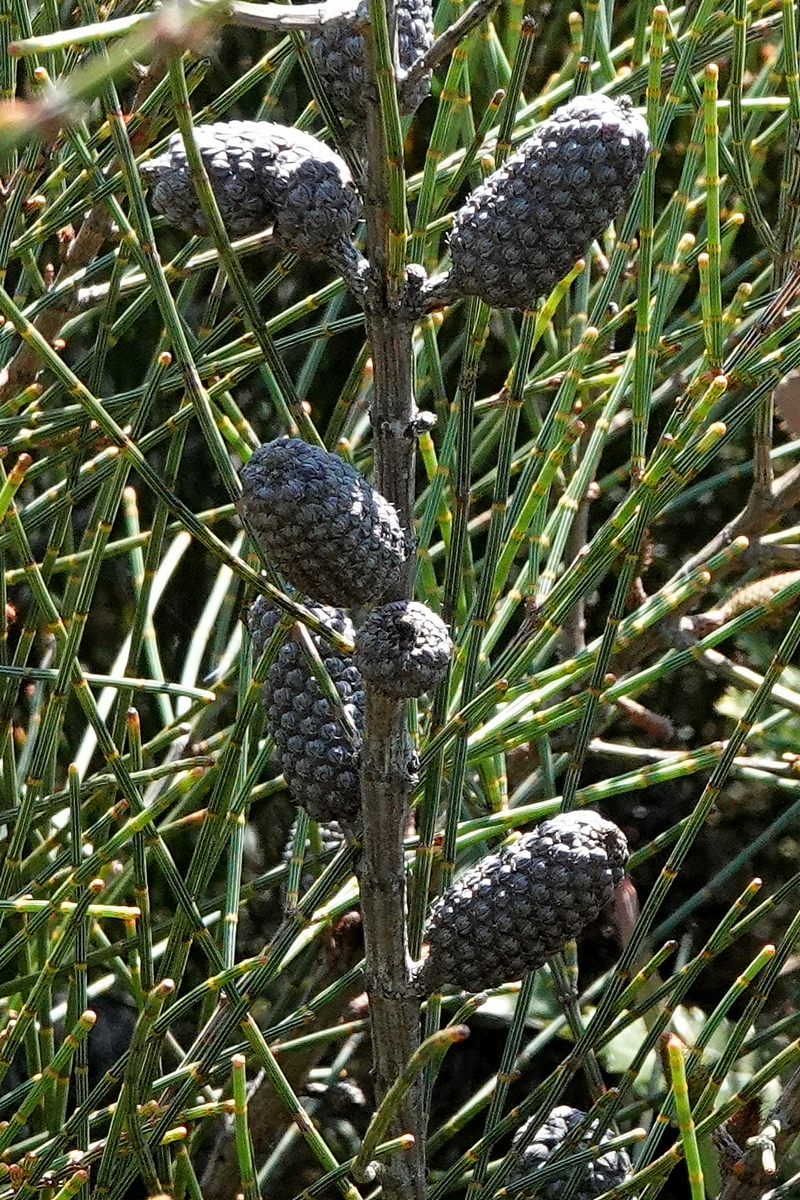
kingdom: Plantae
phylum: Tracheophyta
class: Magnoliopsida
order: Fagales
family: Casuarinaceae
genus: Allocasuarina
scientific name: Allocasuarina distyla
